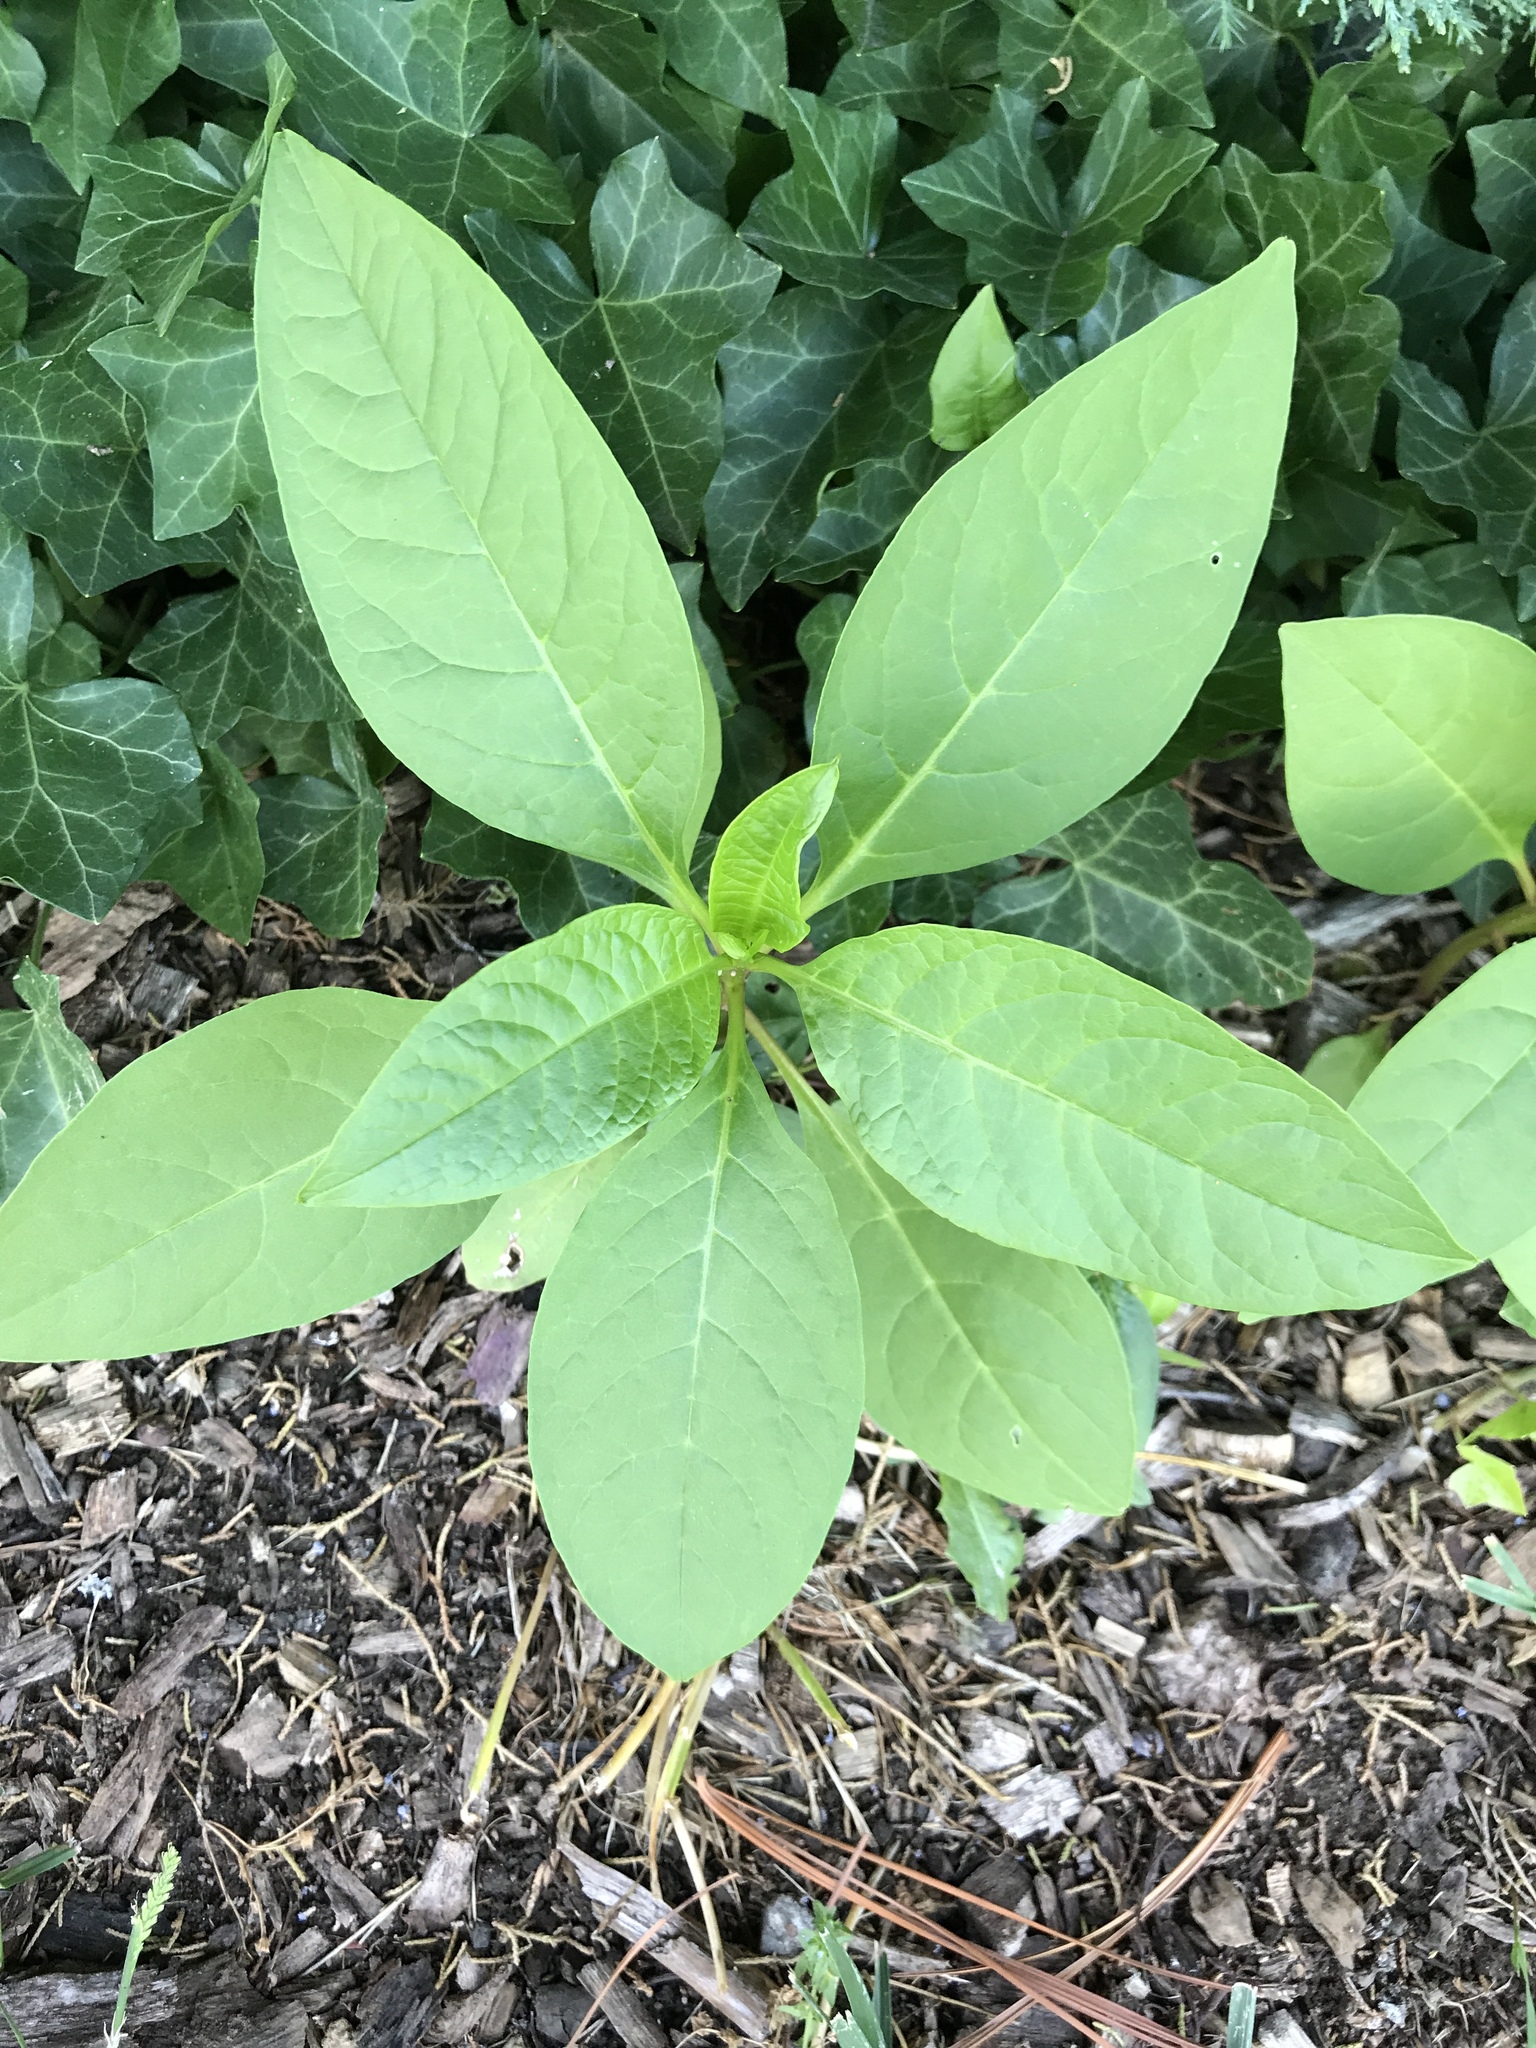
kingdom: Plantae
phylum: Tracheophyta
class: Magnoliopsida
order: Caryophyllales
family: Phytolaccaceae
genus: Phytolacca
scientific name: Phytolacca americana
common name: American pokeweed
